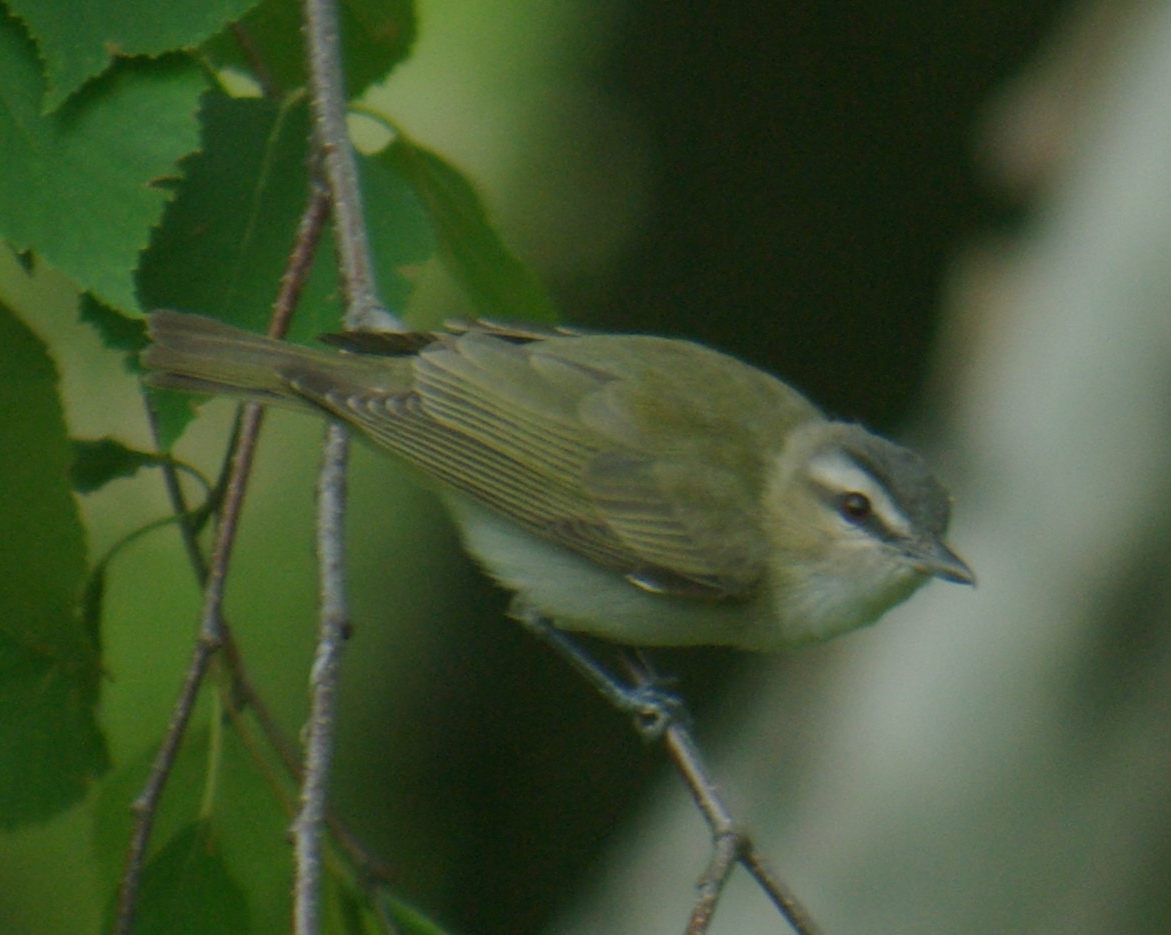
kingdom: Animalia
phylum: Chordata
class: Aves
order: Passeriformes
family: Vireonidae
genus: Vireo
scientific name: Vireo olivaceus
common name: Red-eyed vireo
